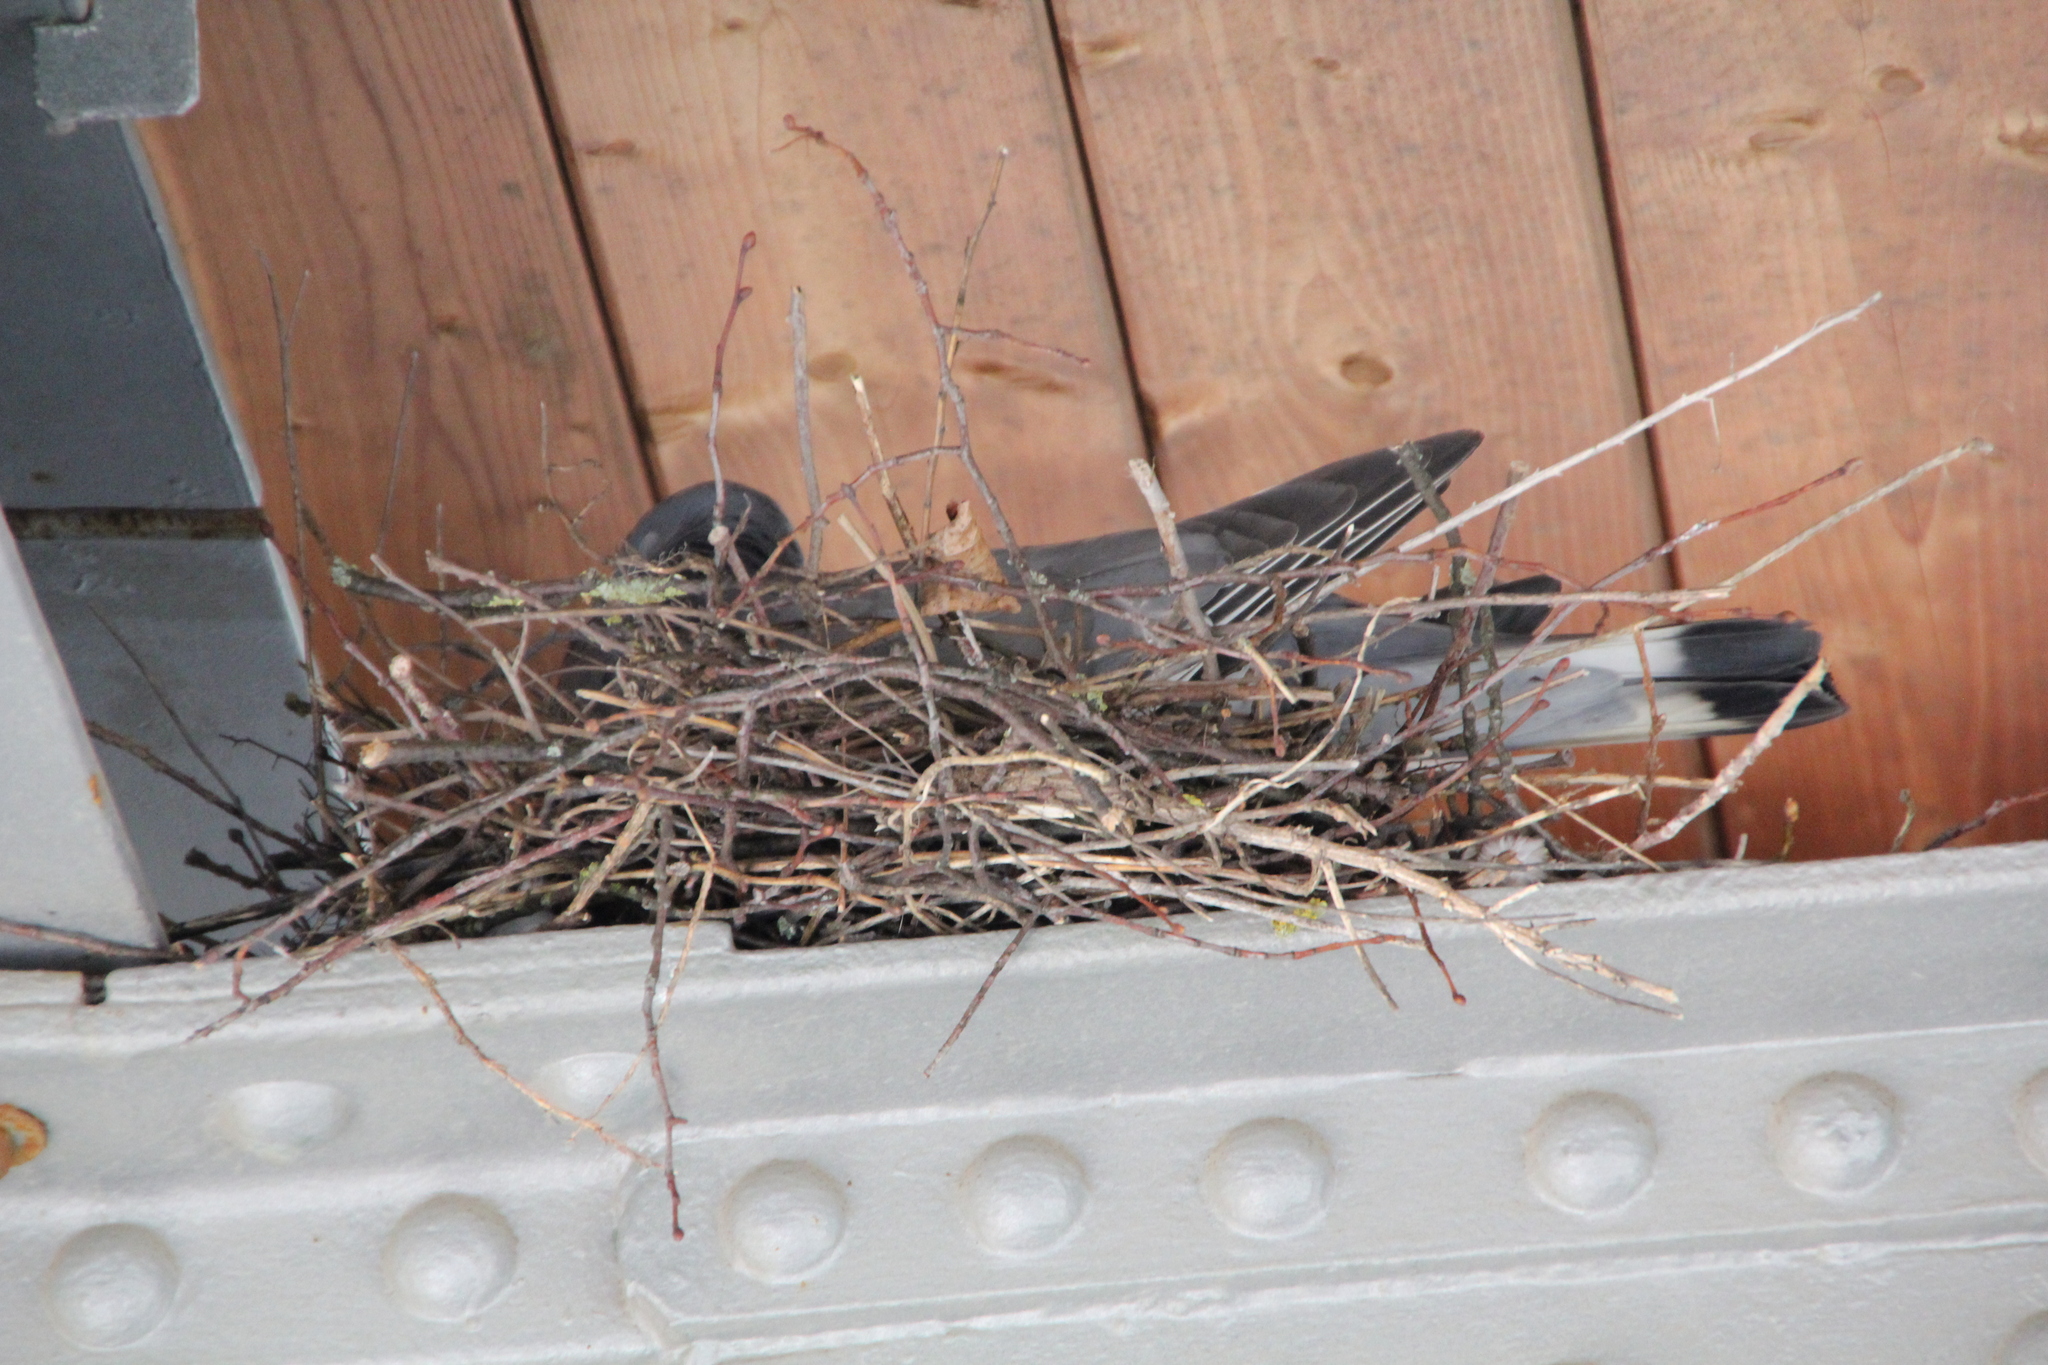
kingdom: Animalia
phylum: Chordata
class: Aves
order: Columbiformes
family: Columbidae
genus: Columba
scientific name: Columba palumbus
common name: Common wood pigeon
